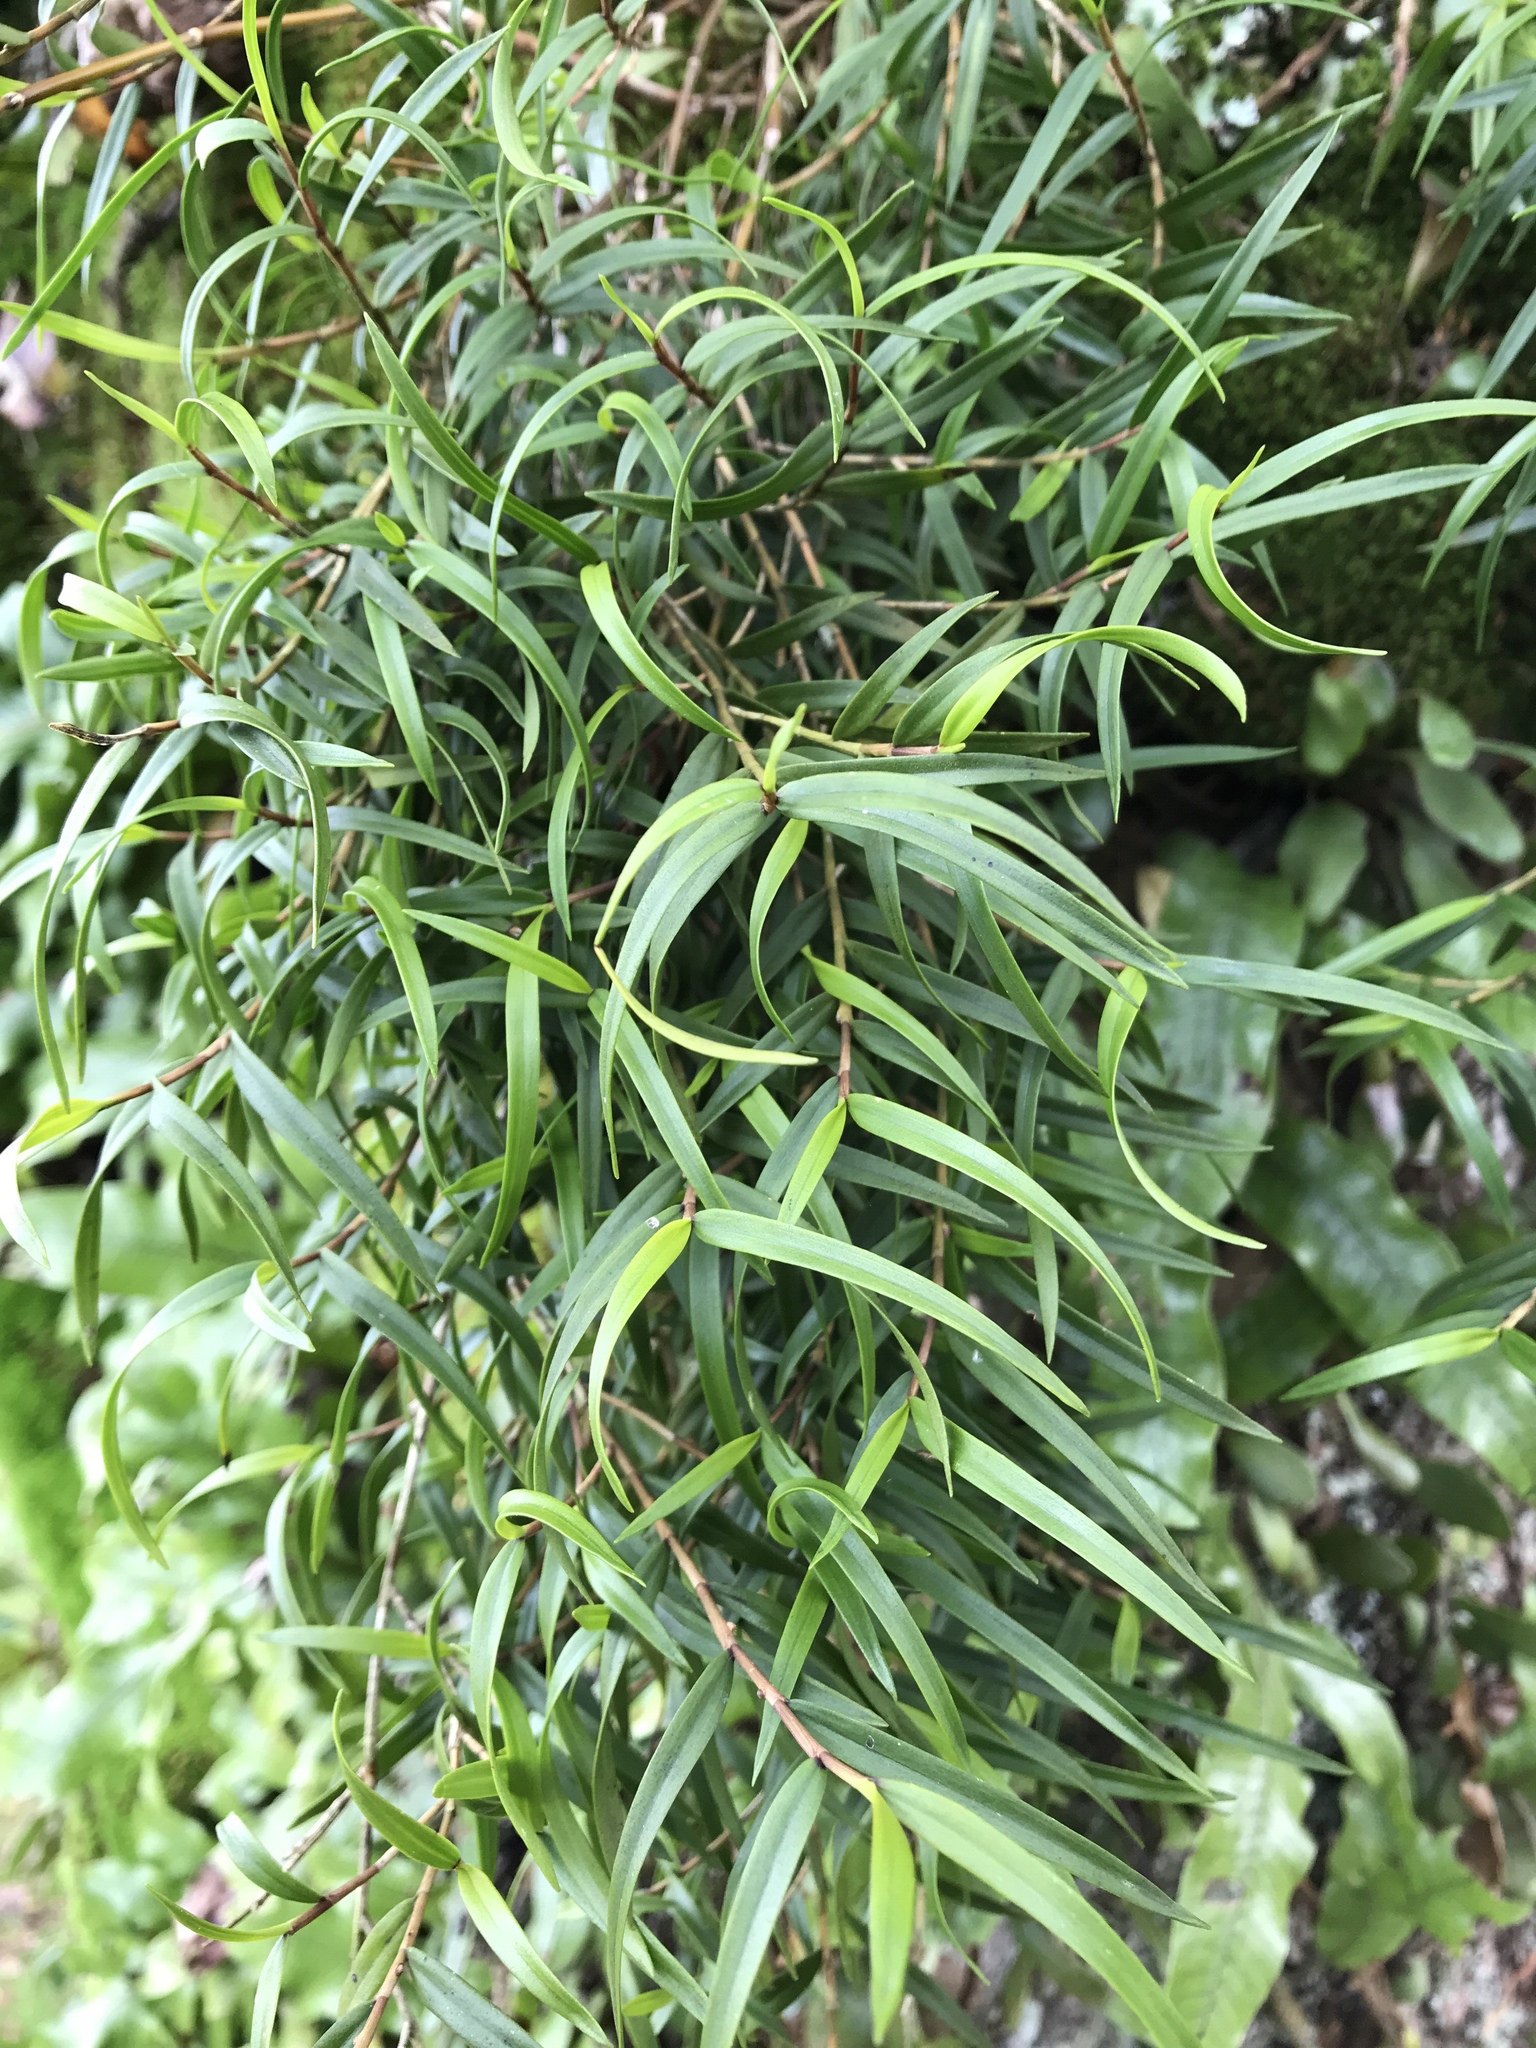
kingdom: Plantae
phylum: Tracheophyta
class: Liliopsida
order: Asparagales
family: Orchidaceae
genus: Dendrobium
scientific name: Dendrobium cunninghamii
